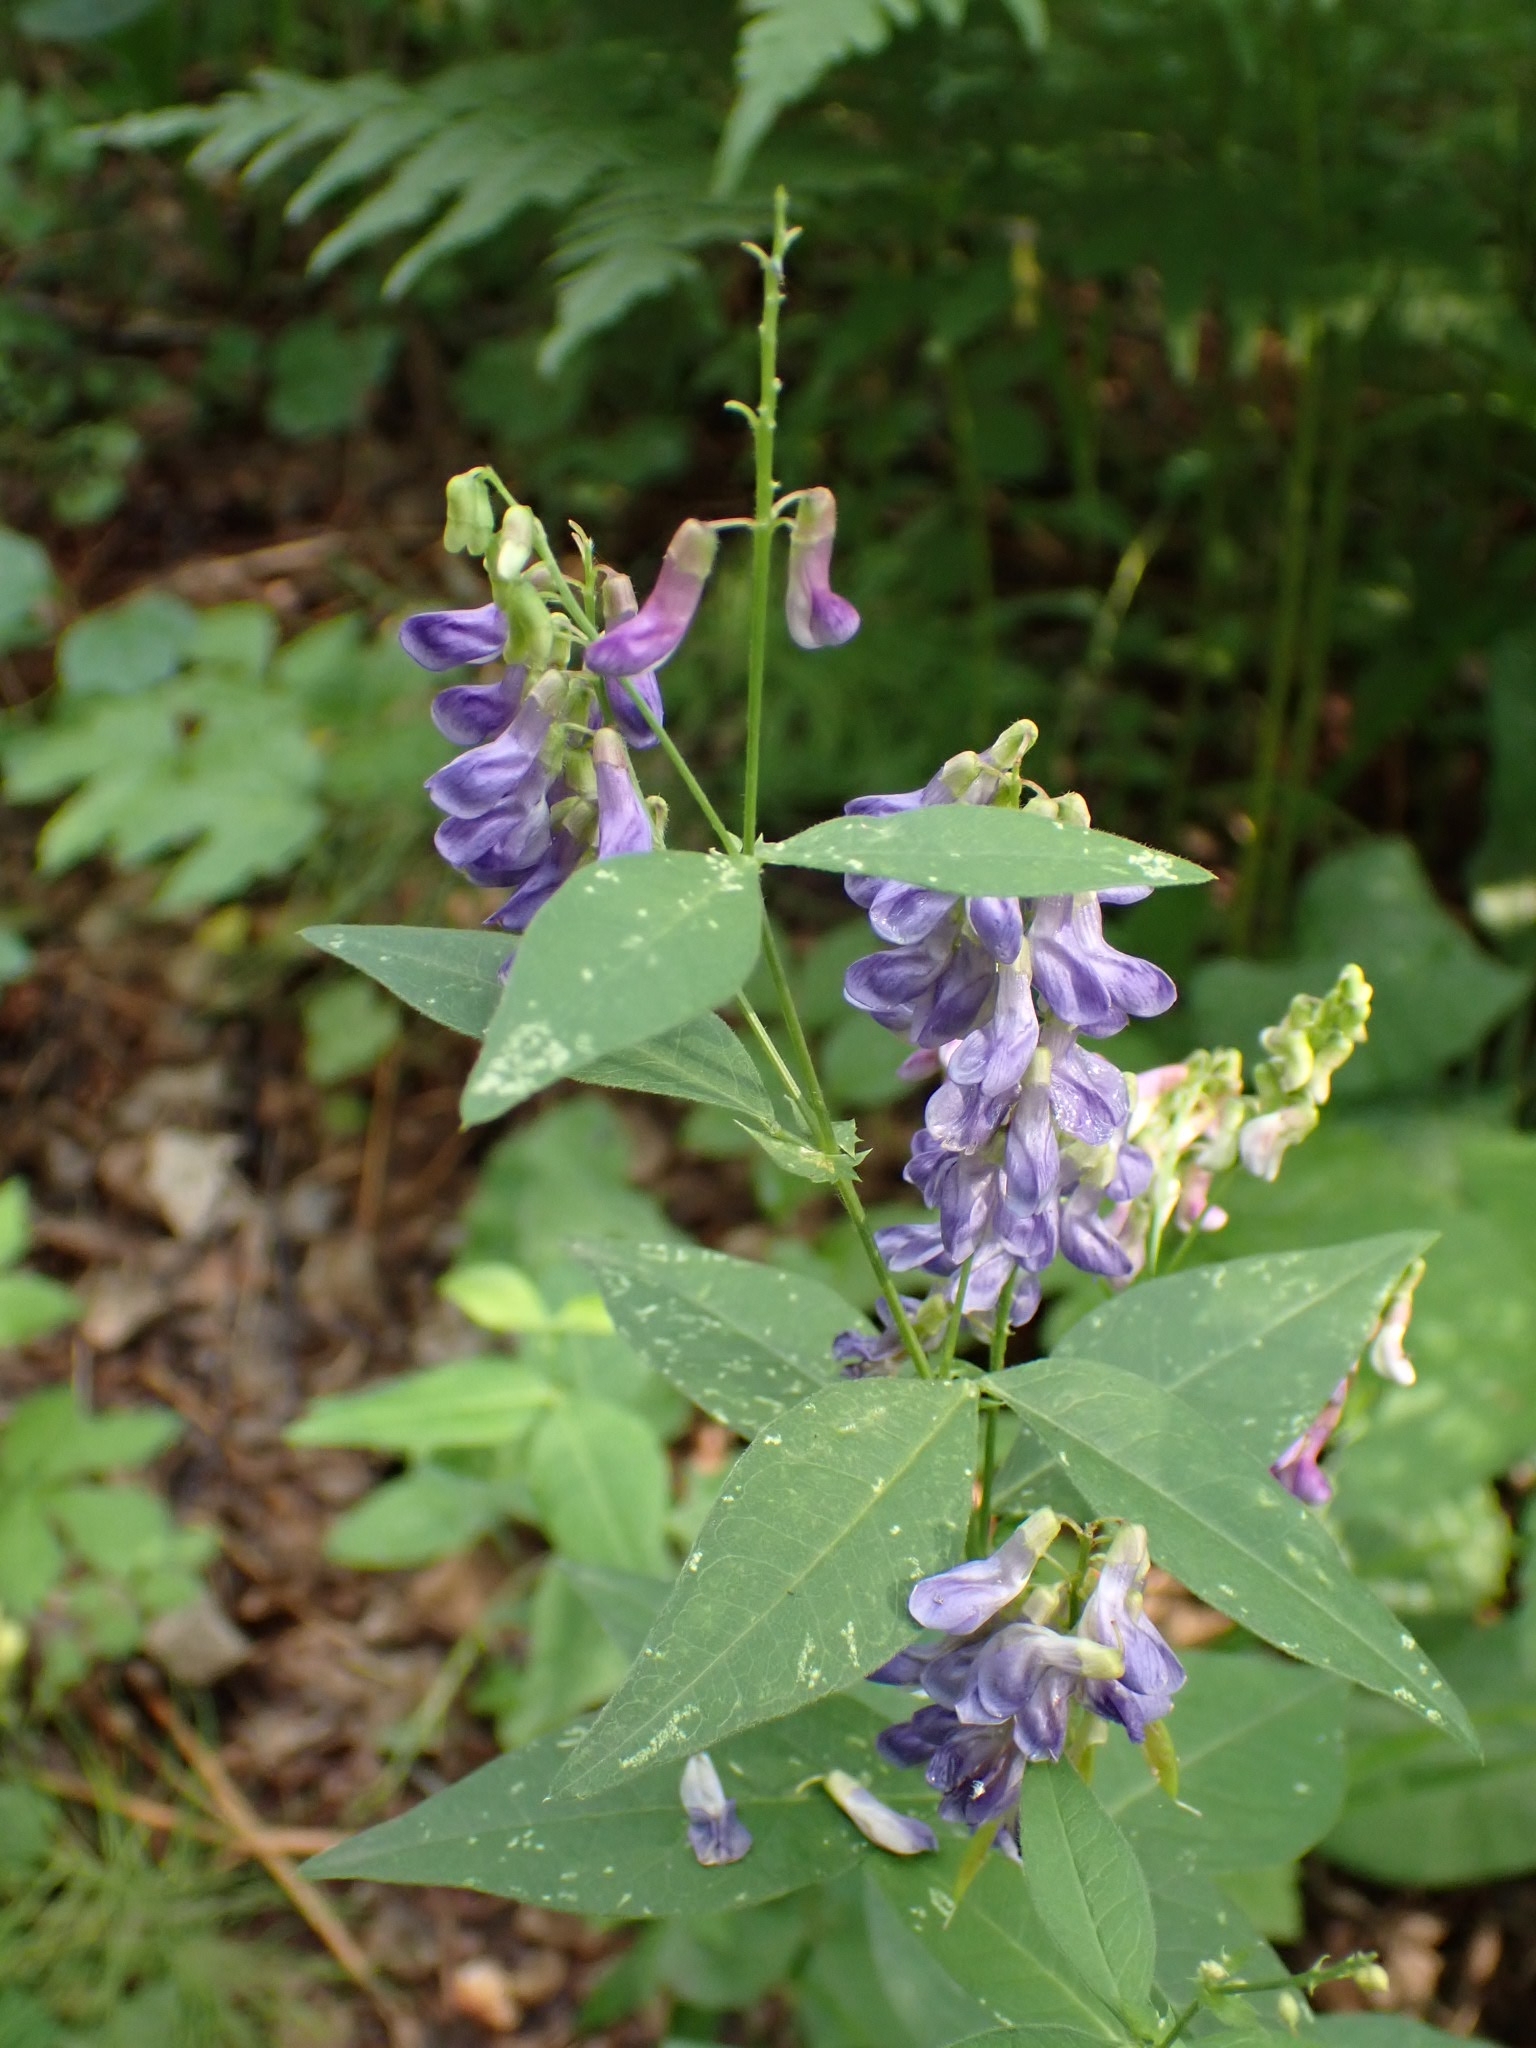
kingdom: Plantae
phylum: Tracheophyta
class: Magnoliopsida
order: Fabales
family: Fabaceae
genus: Vicia
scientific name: Vicia unijuga
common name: Two-leaf vetch
